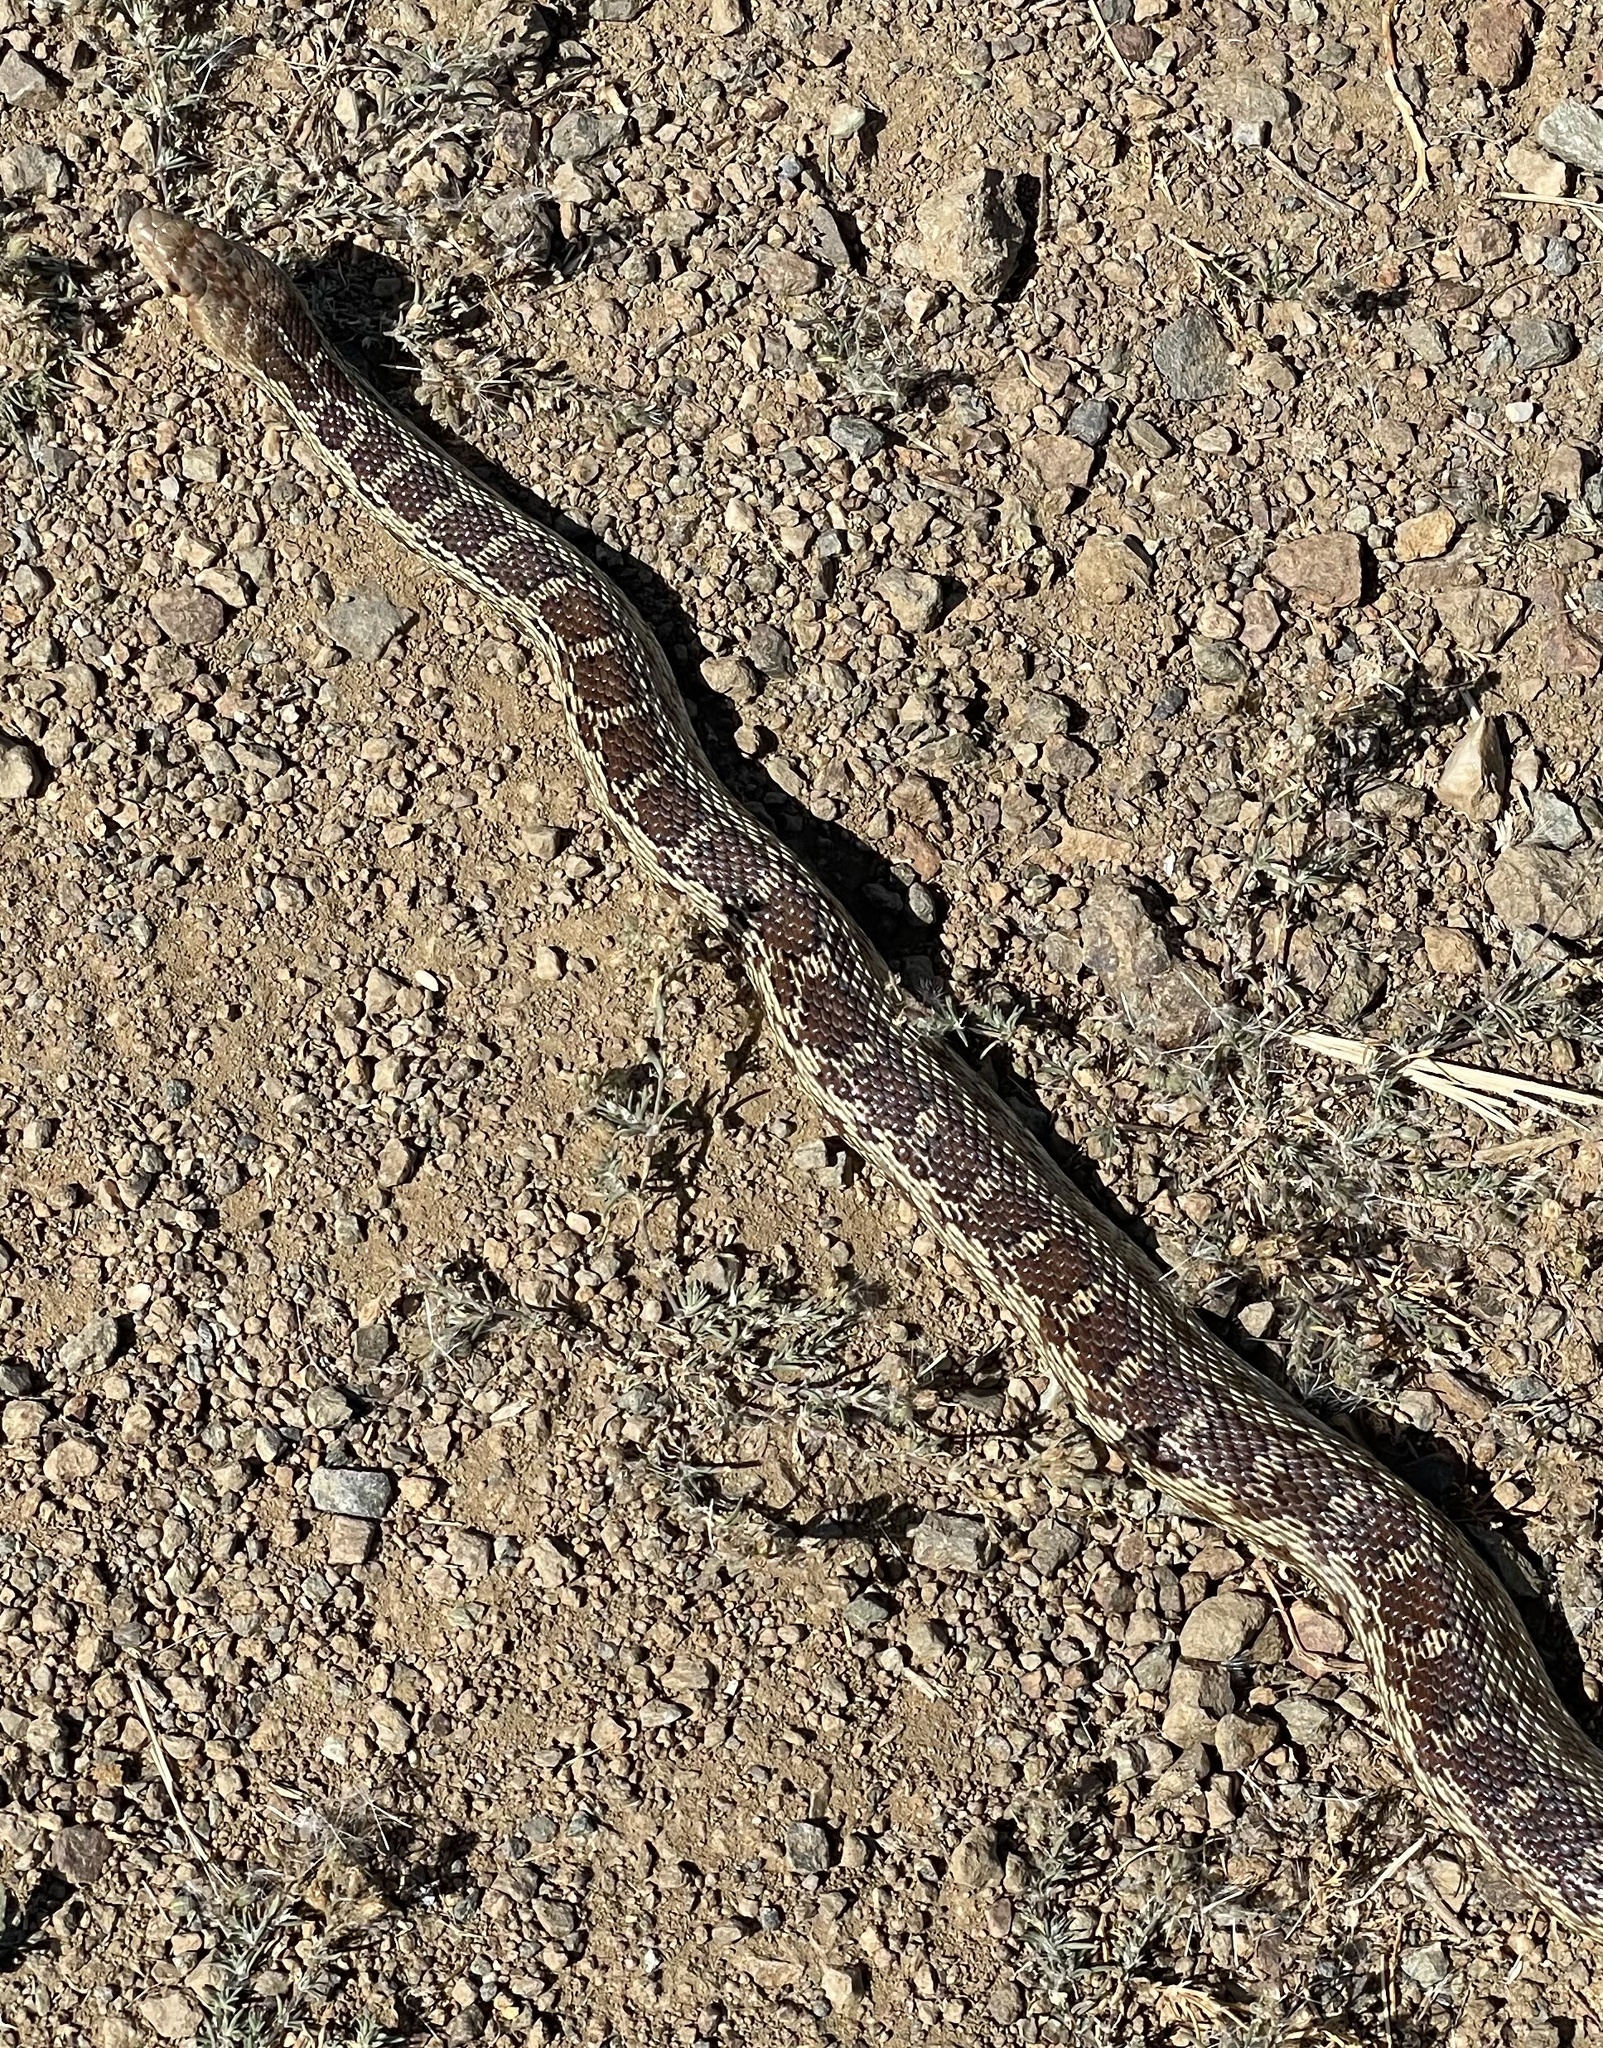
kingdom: Animalia
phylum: Chordata
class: Squamata
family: Colubridae
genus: Pituophis
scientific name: Pituophis catenifer
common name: Gopher snake
